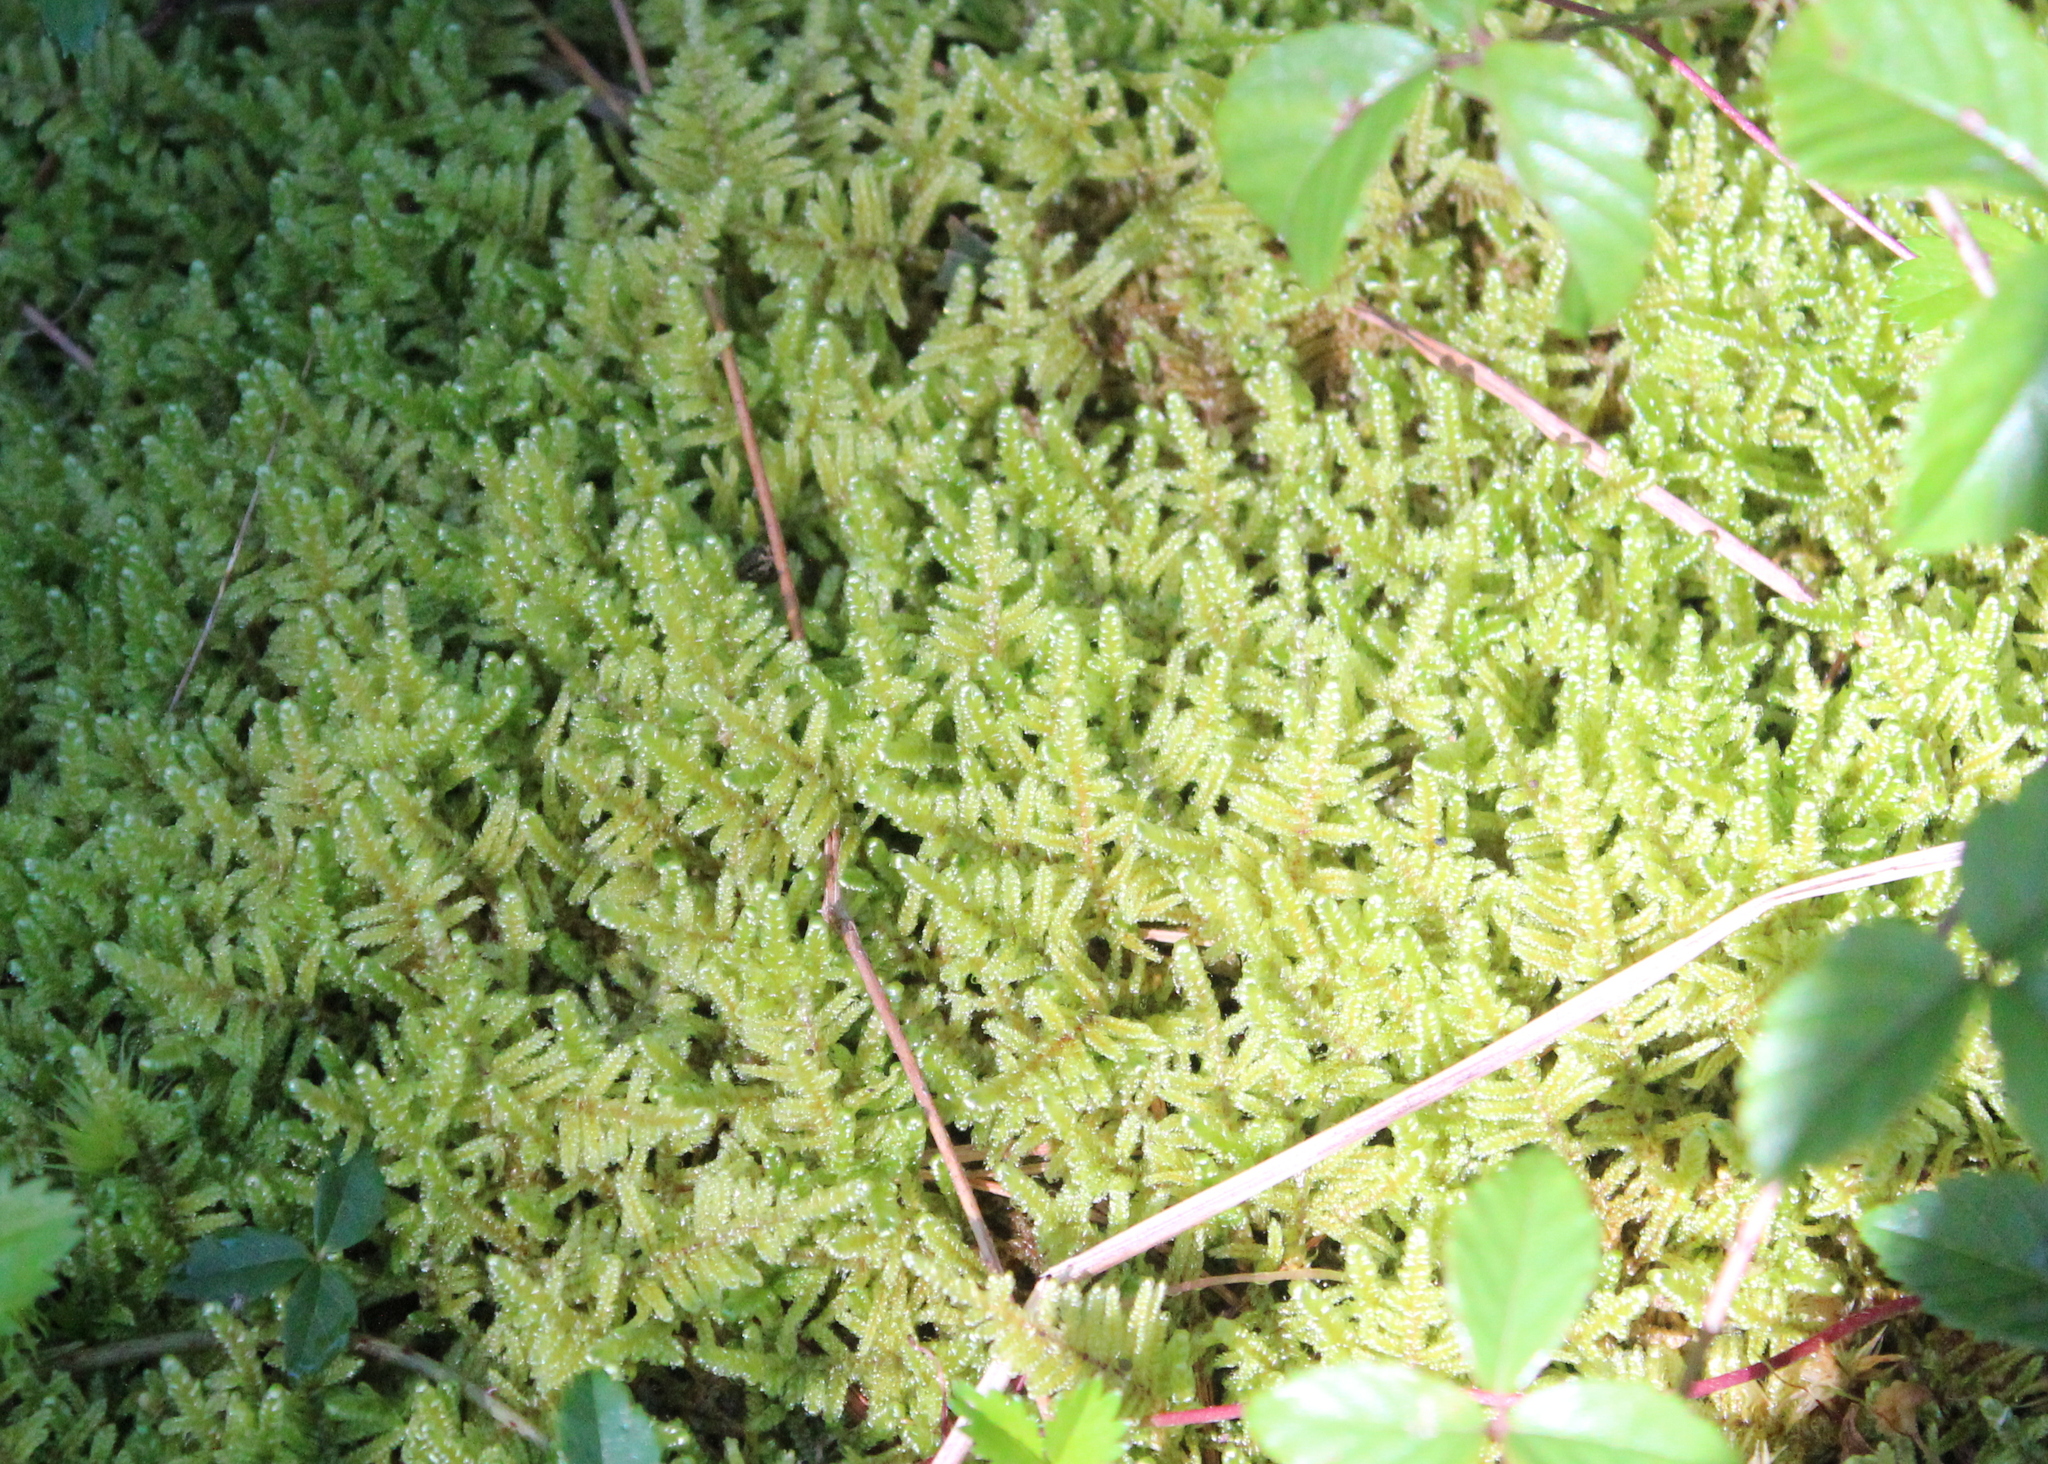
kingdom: Plantae
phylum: Bryophyta
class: Bryopsida
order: Hypnales
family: Callicladiaceae
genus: Callicladium
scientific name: Callicladium imponens
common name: Brocade moss
